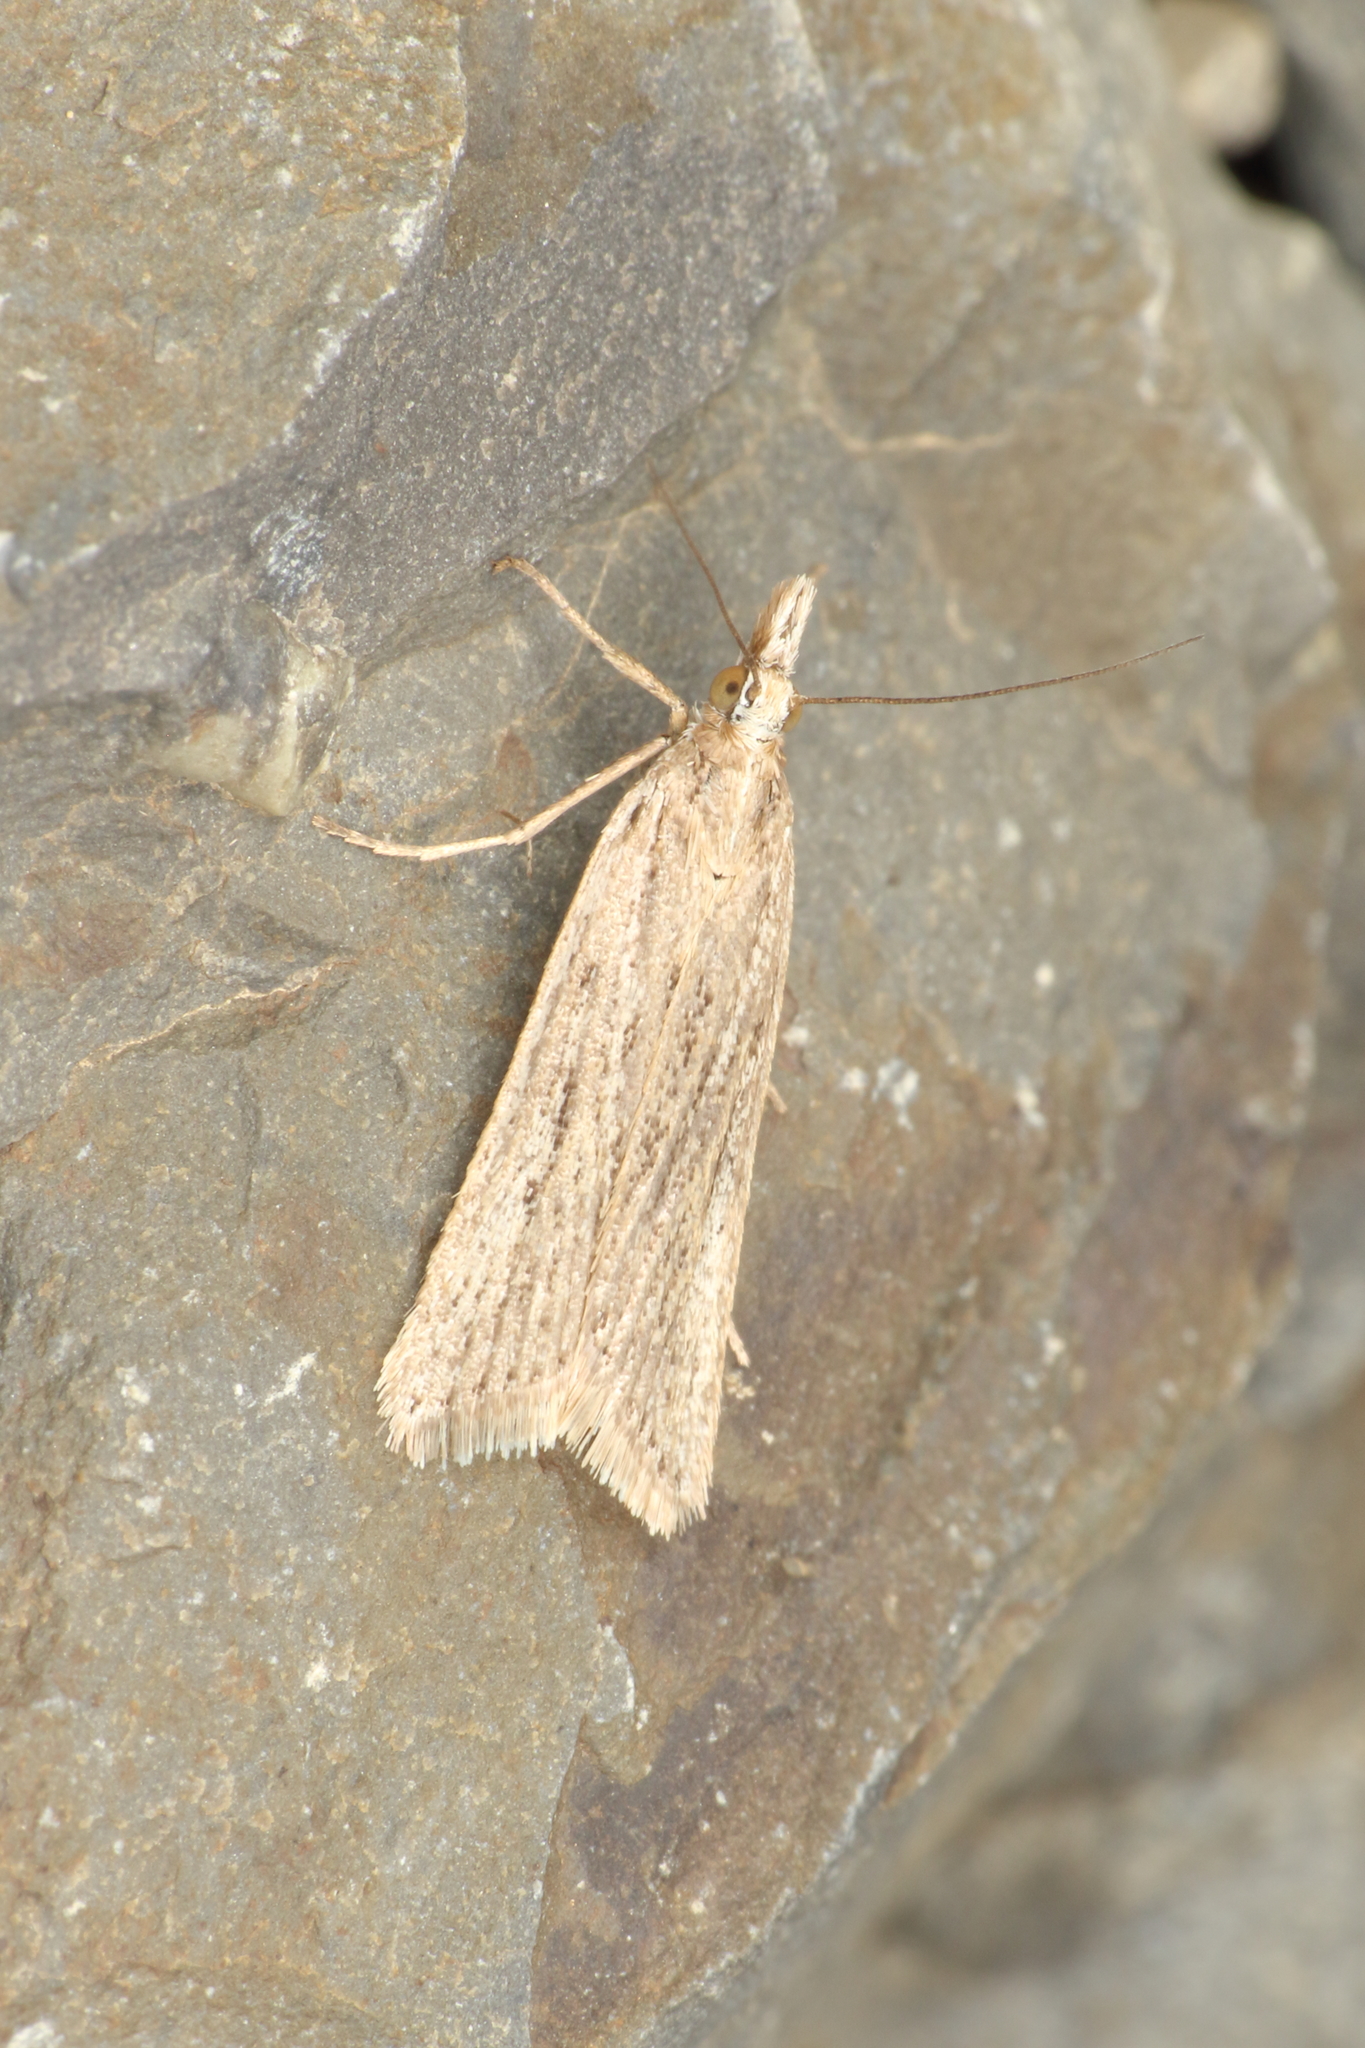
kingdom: Animalia
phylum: Arthropoda
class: Insecta
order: Lepidoptera
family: Crambidae
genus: Eudonia
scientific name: Eudonia sabulosella
